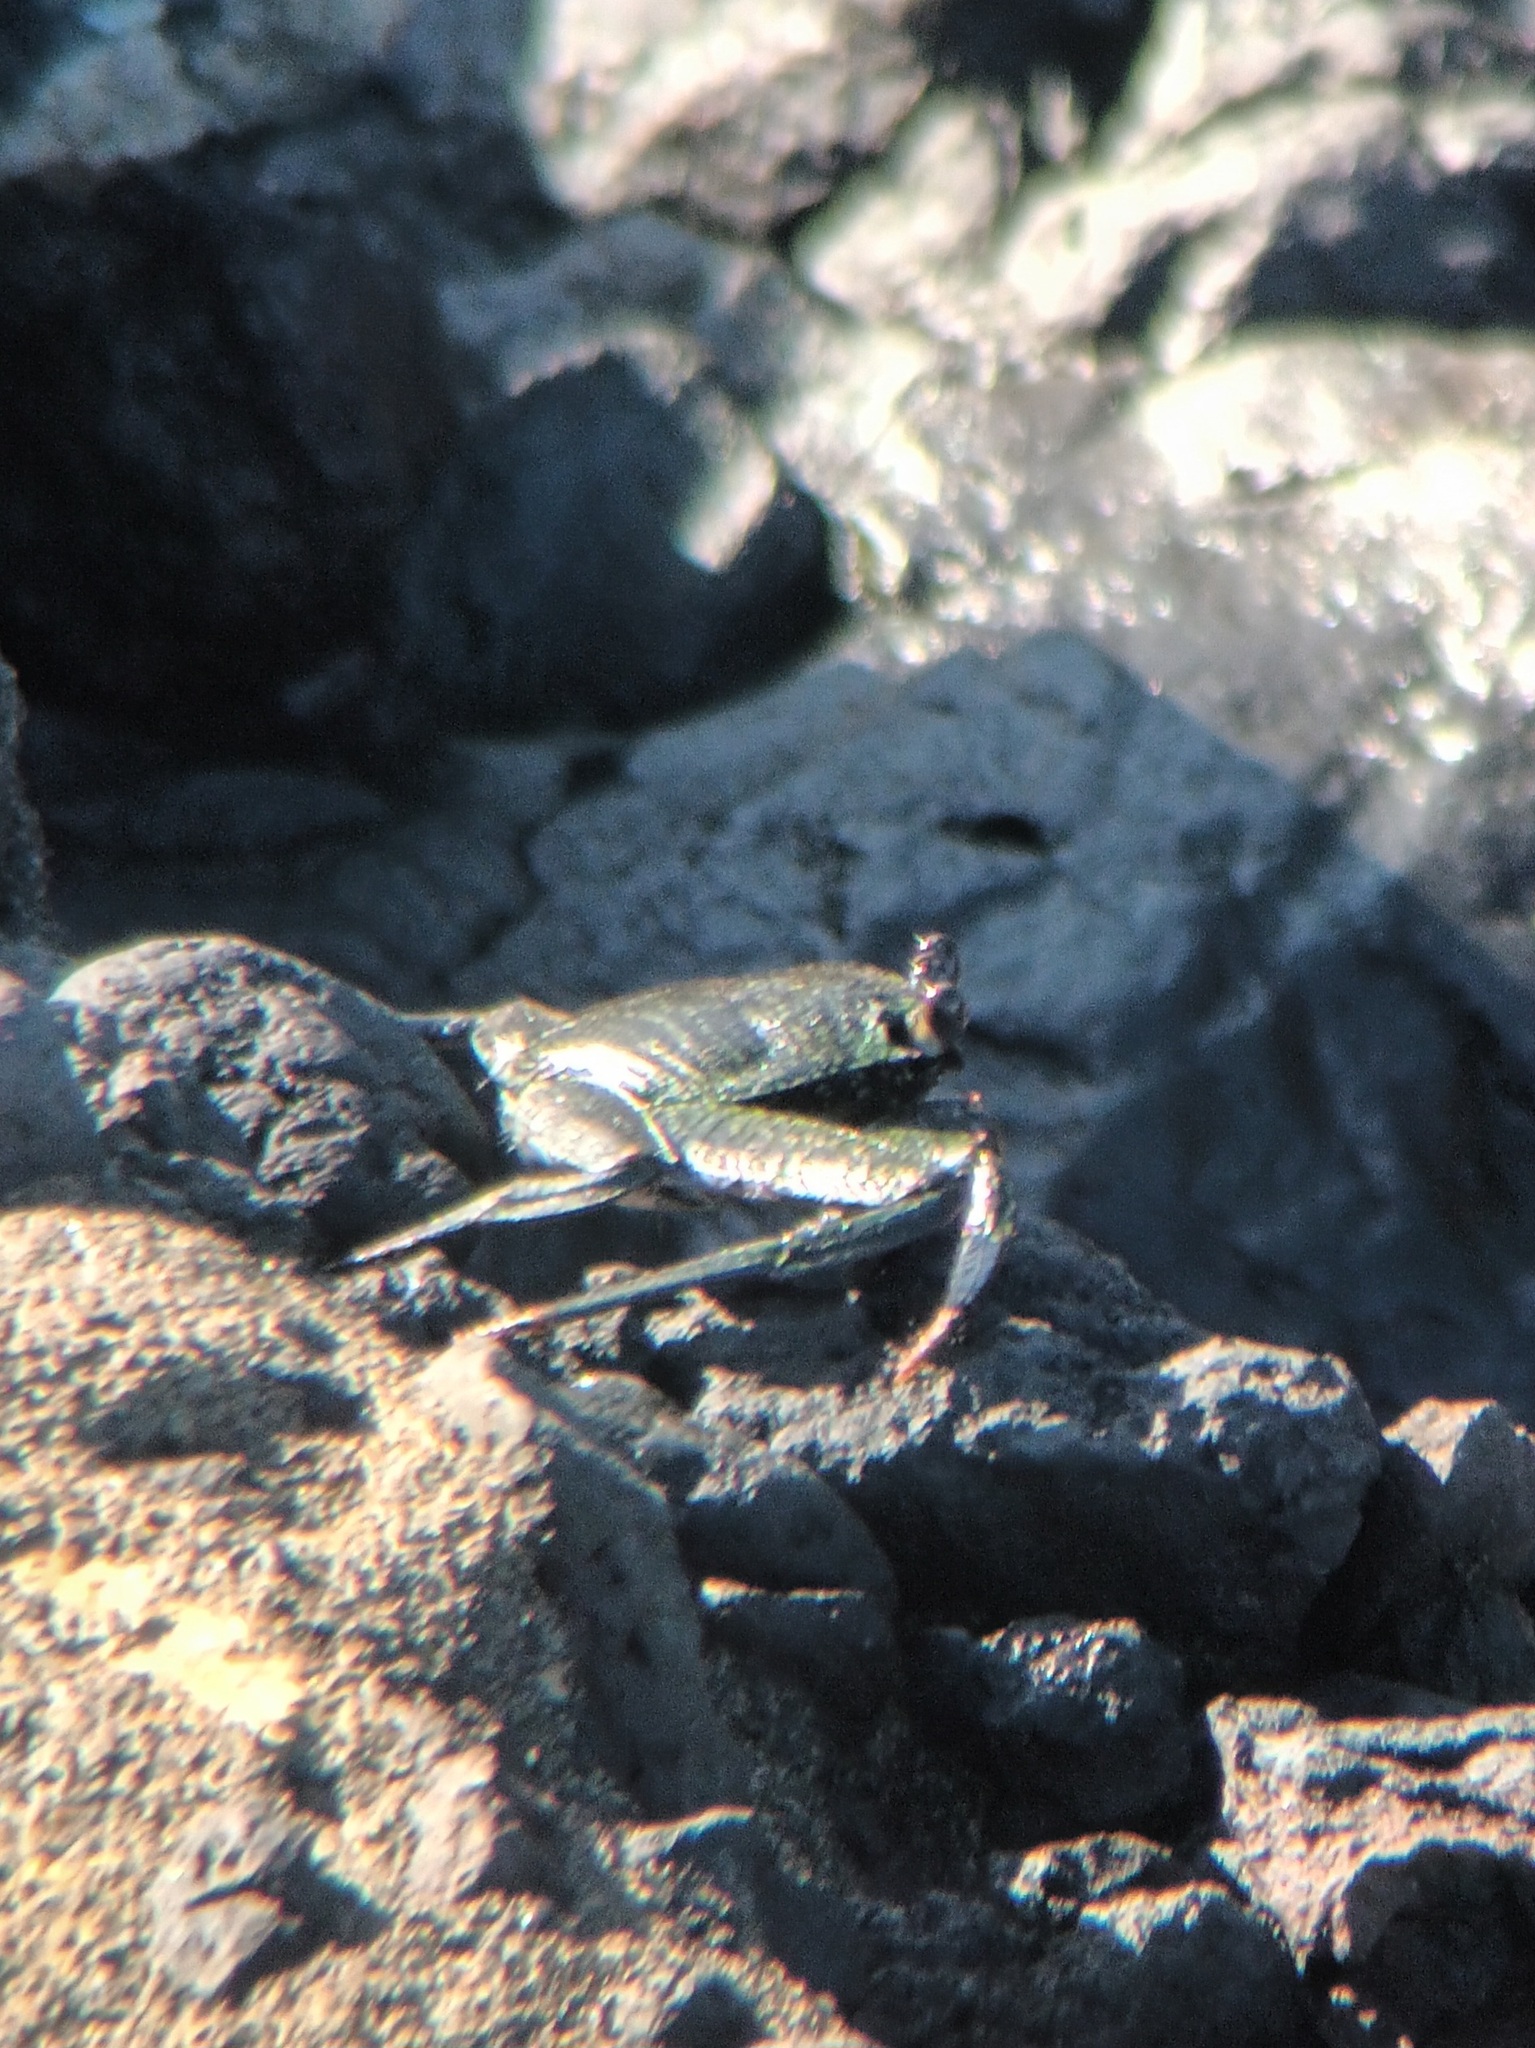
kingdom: Animalia
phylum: Arthropoda
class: Malacostraca
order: Decapoda
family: Grapsidae
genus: Grapsus
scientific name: Grapsus tenuicrustatus
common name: Natal lightfoot crab
